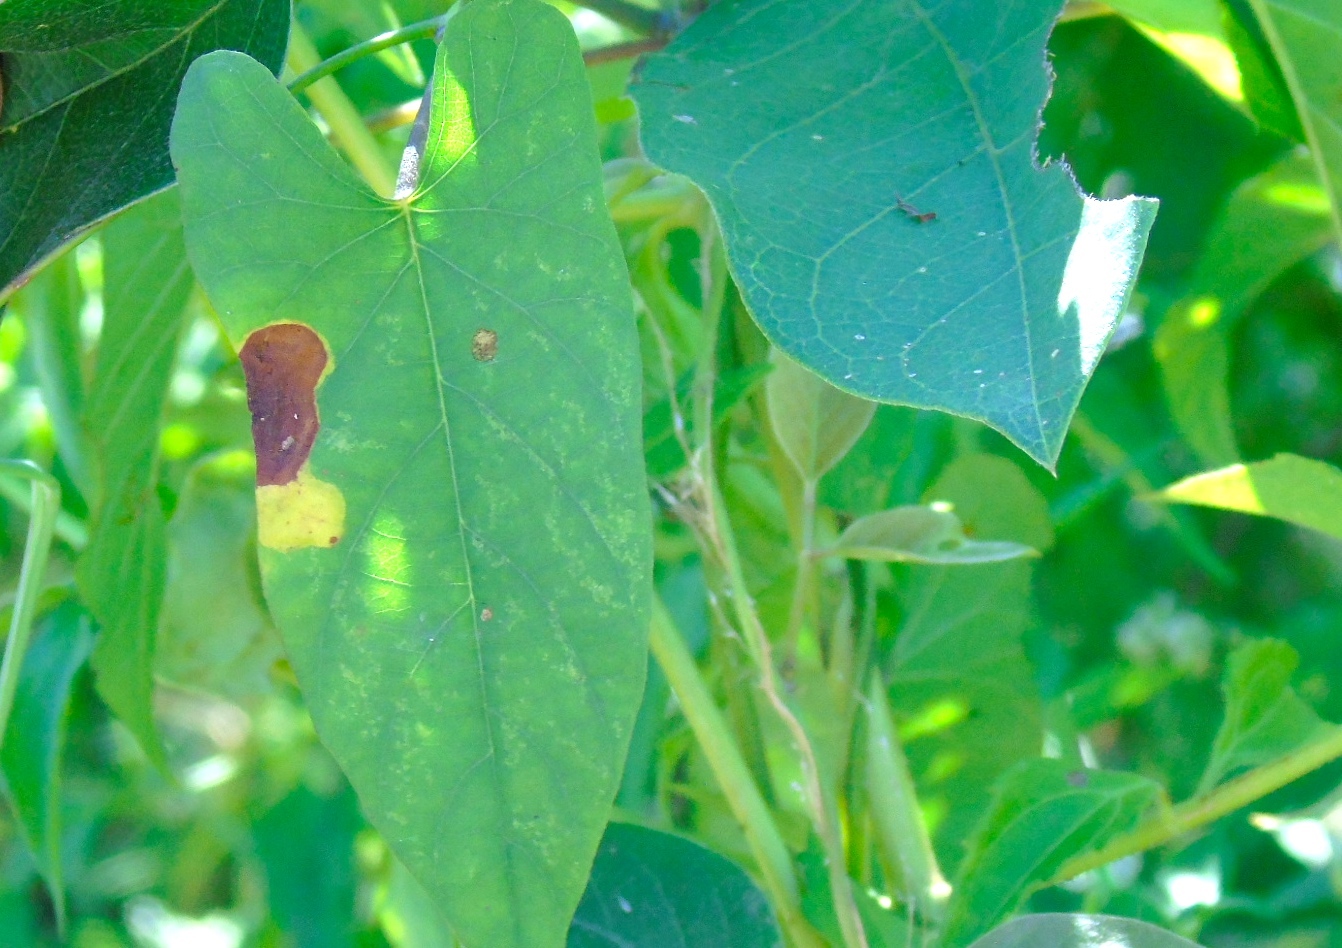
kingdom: Plantae
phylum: Tracheophyta
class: Magnoliopsida
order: Solanales
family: Convolvulaceae
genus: Distimake
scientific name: Distimake
